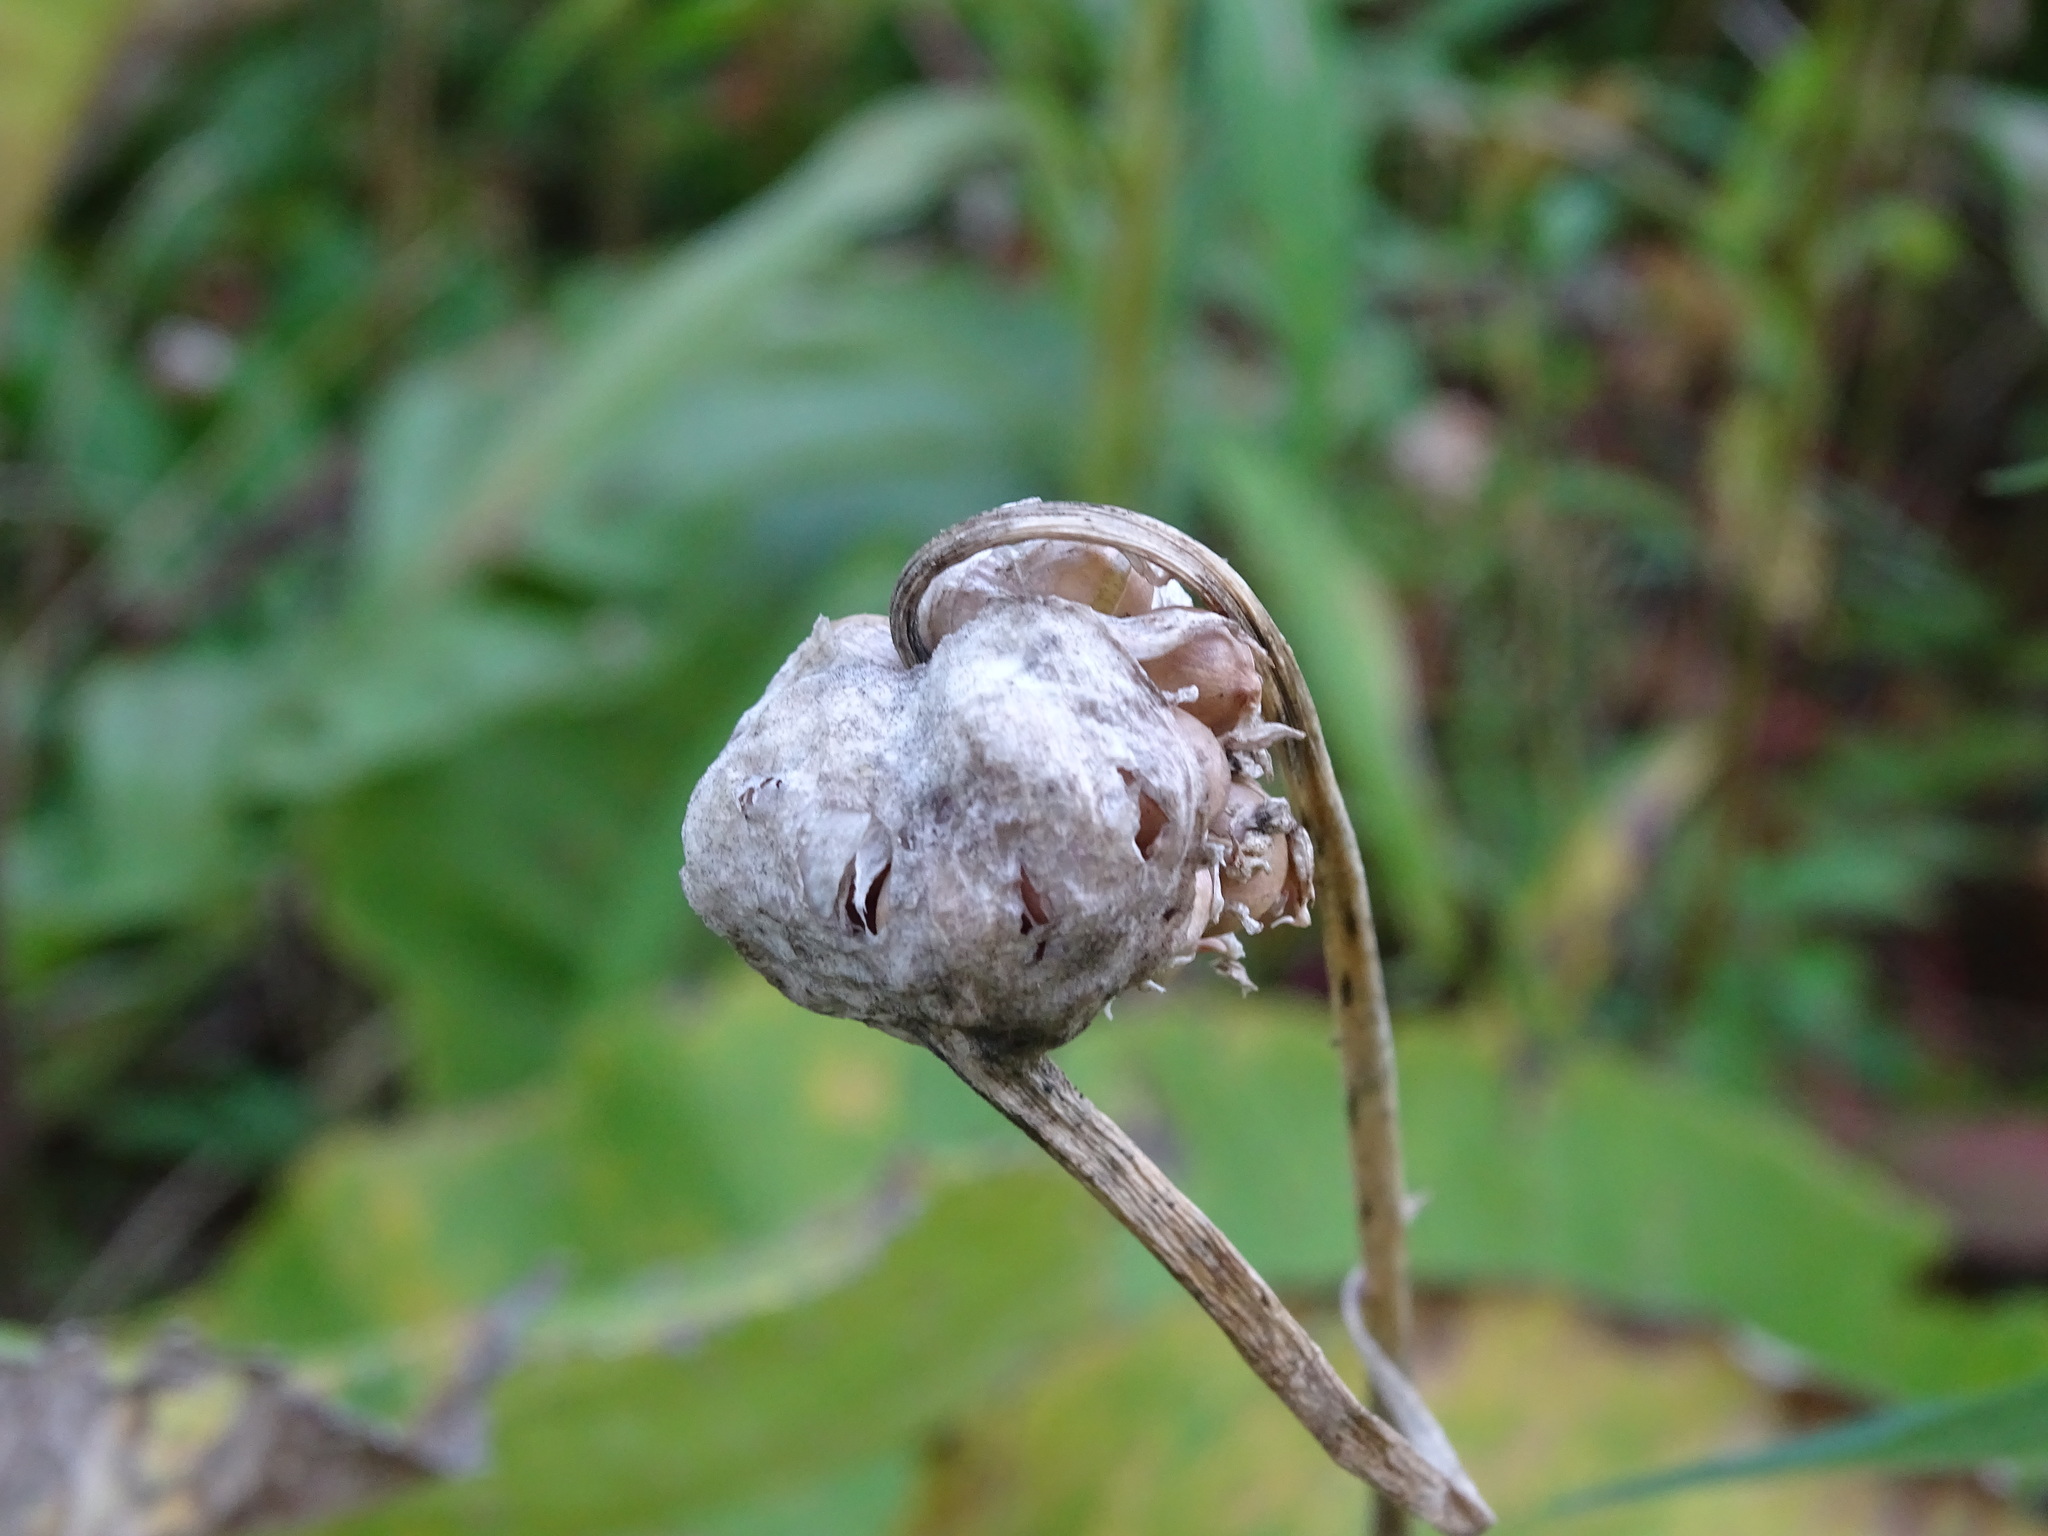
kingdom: Plantae
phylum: Tracheophyta
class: Liliopsida
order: Asparagales
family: Amaryllidaceae
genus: Allium
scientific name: Allium sativum
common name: Garlic
